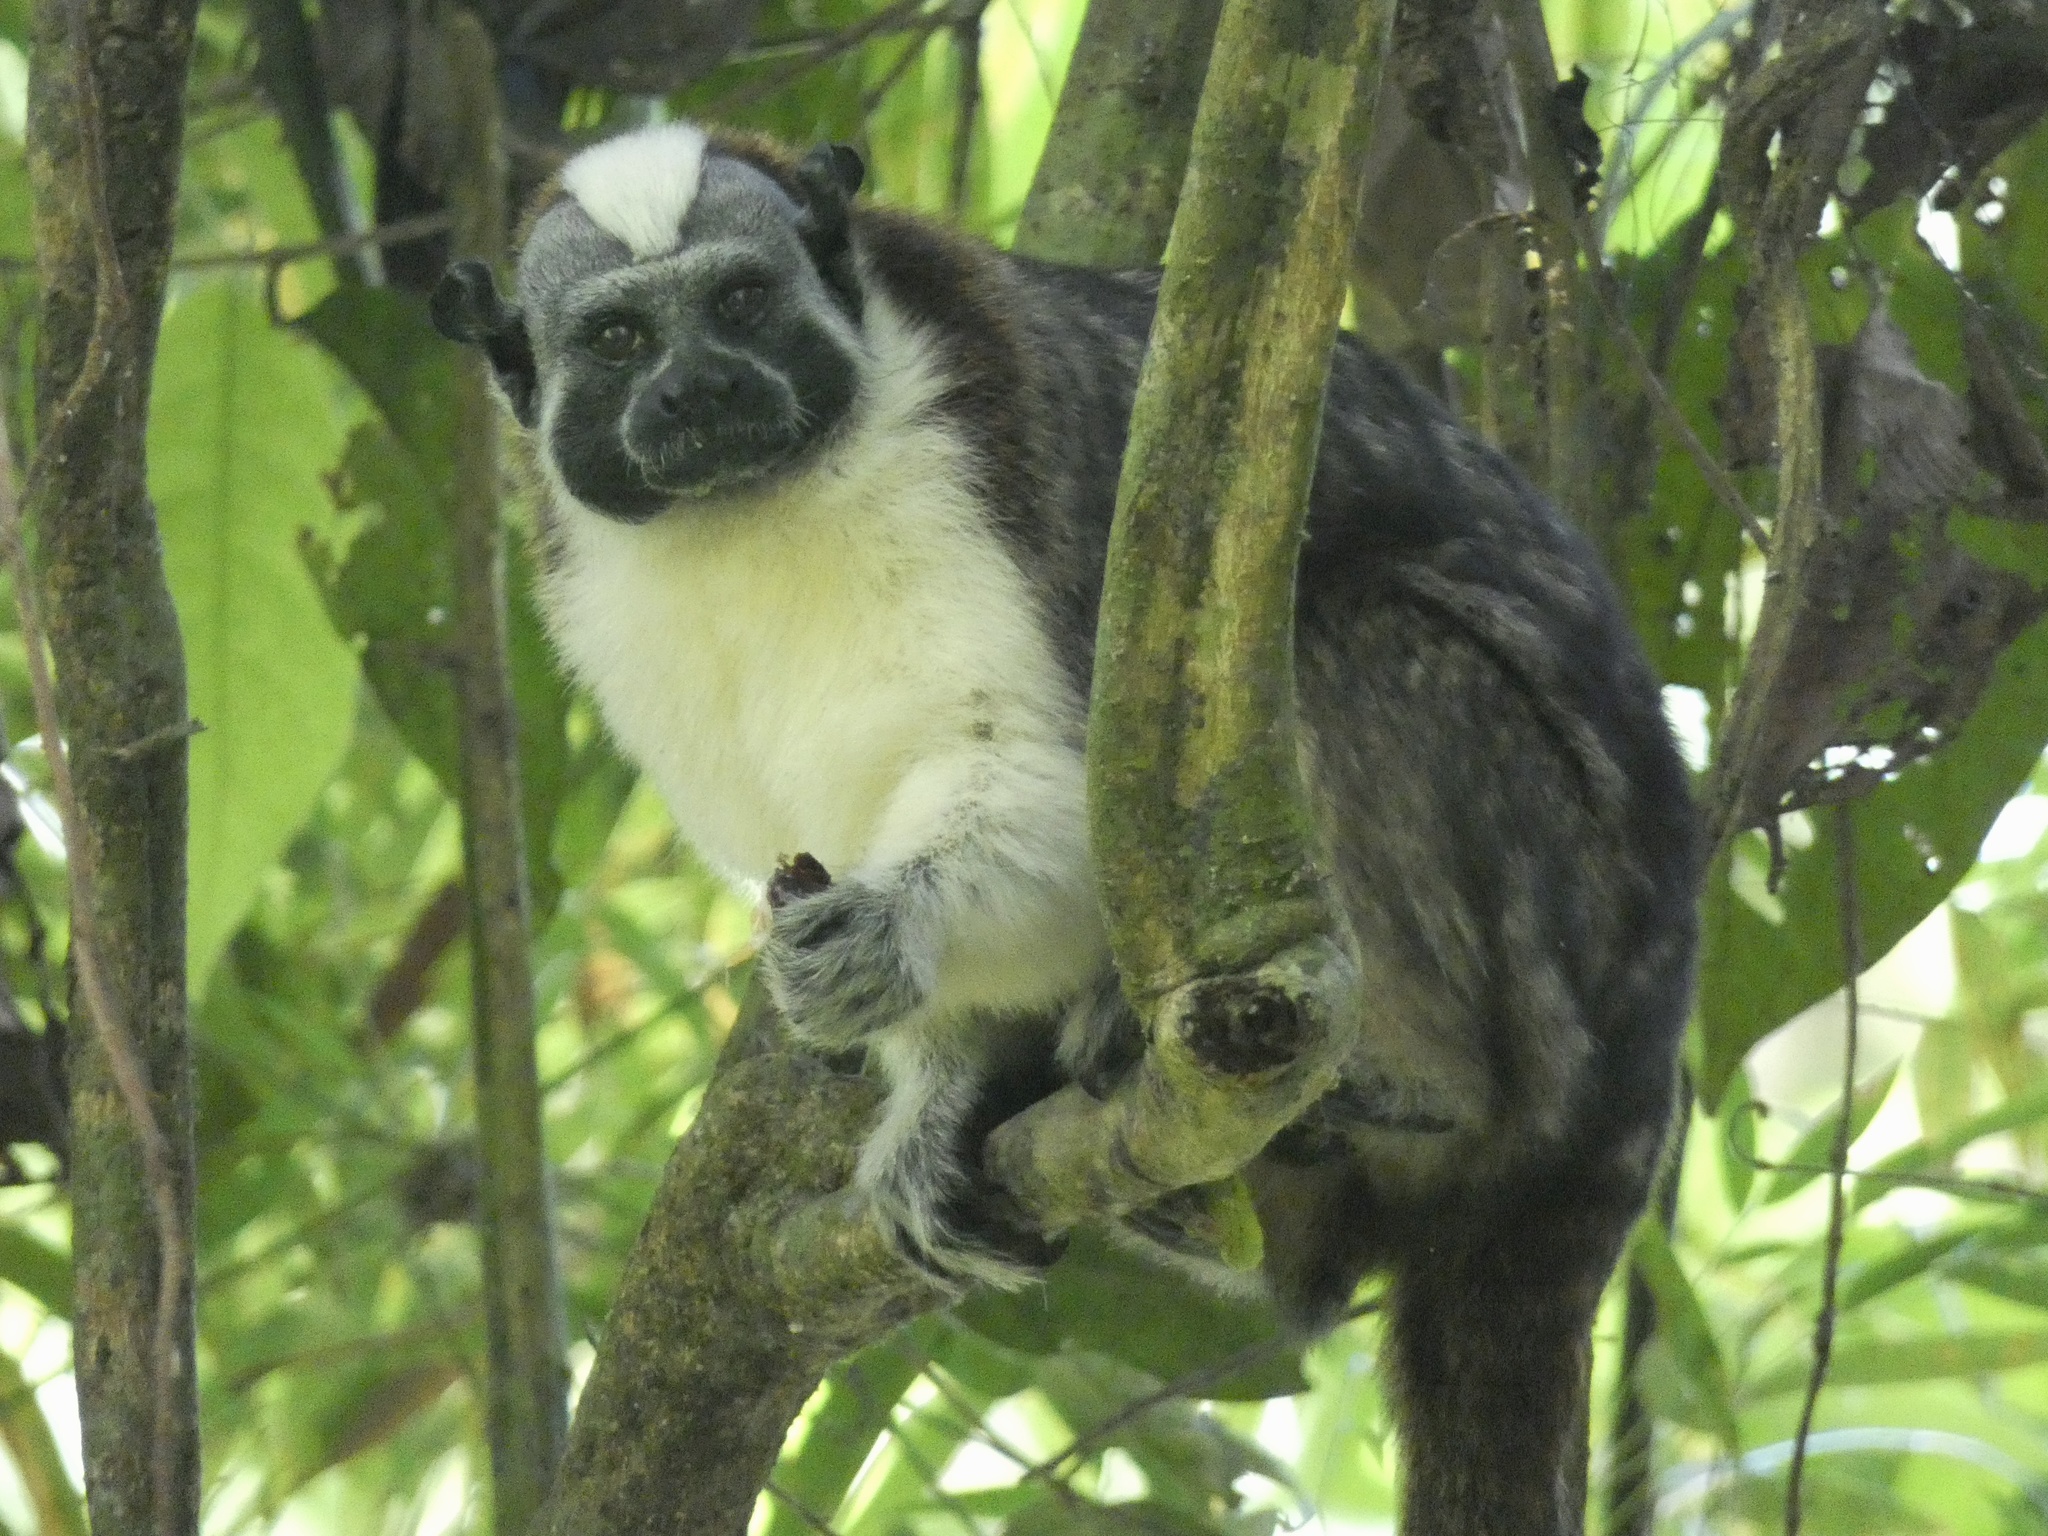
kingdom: Animalia
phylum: Chordata
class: Mammalia
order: Primates
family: Callitrichidae
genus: Saguinus
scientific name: Saguinus geoffroyi
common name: Geoffroy s tamarin
